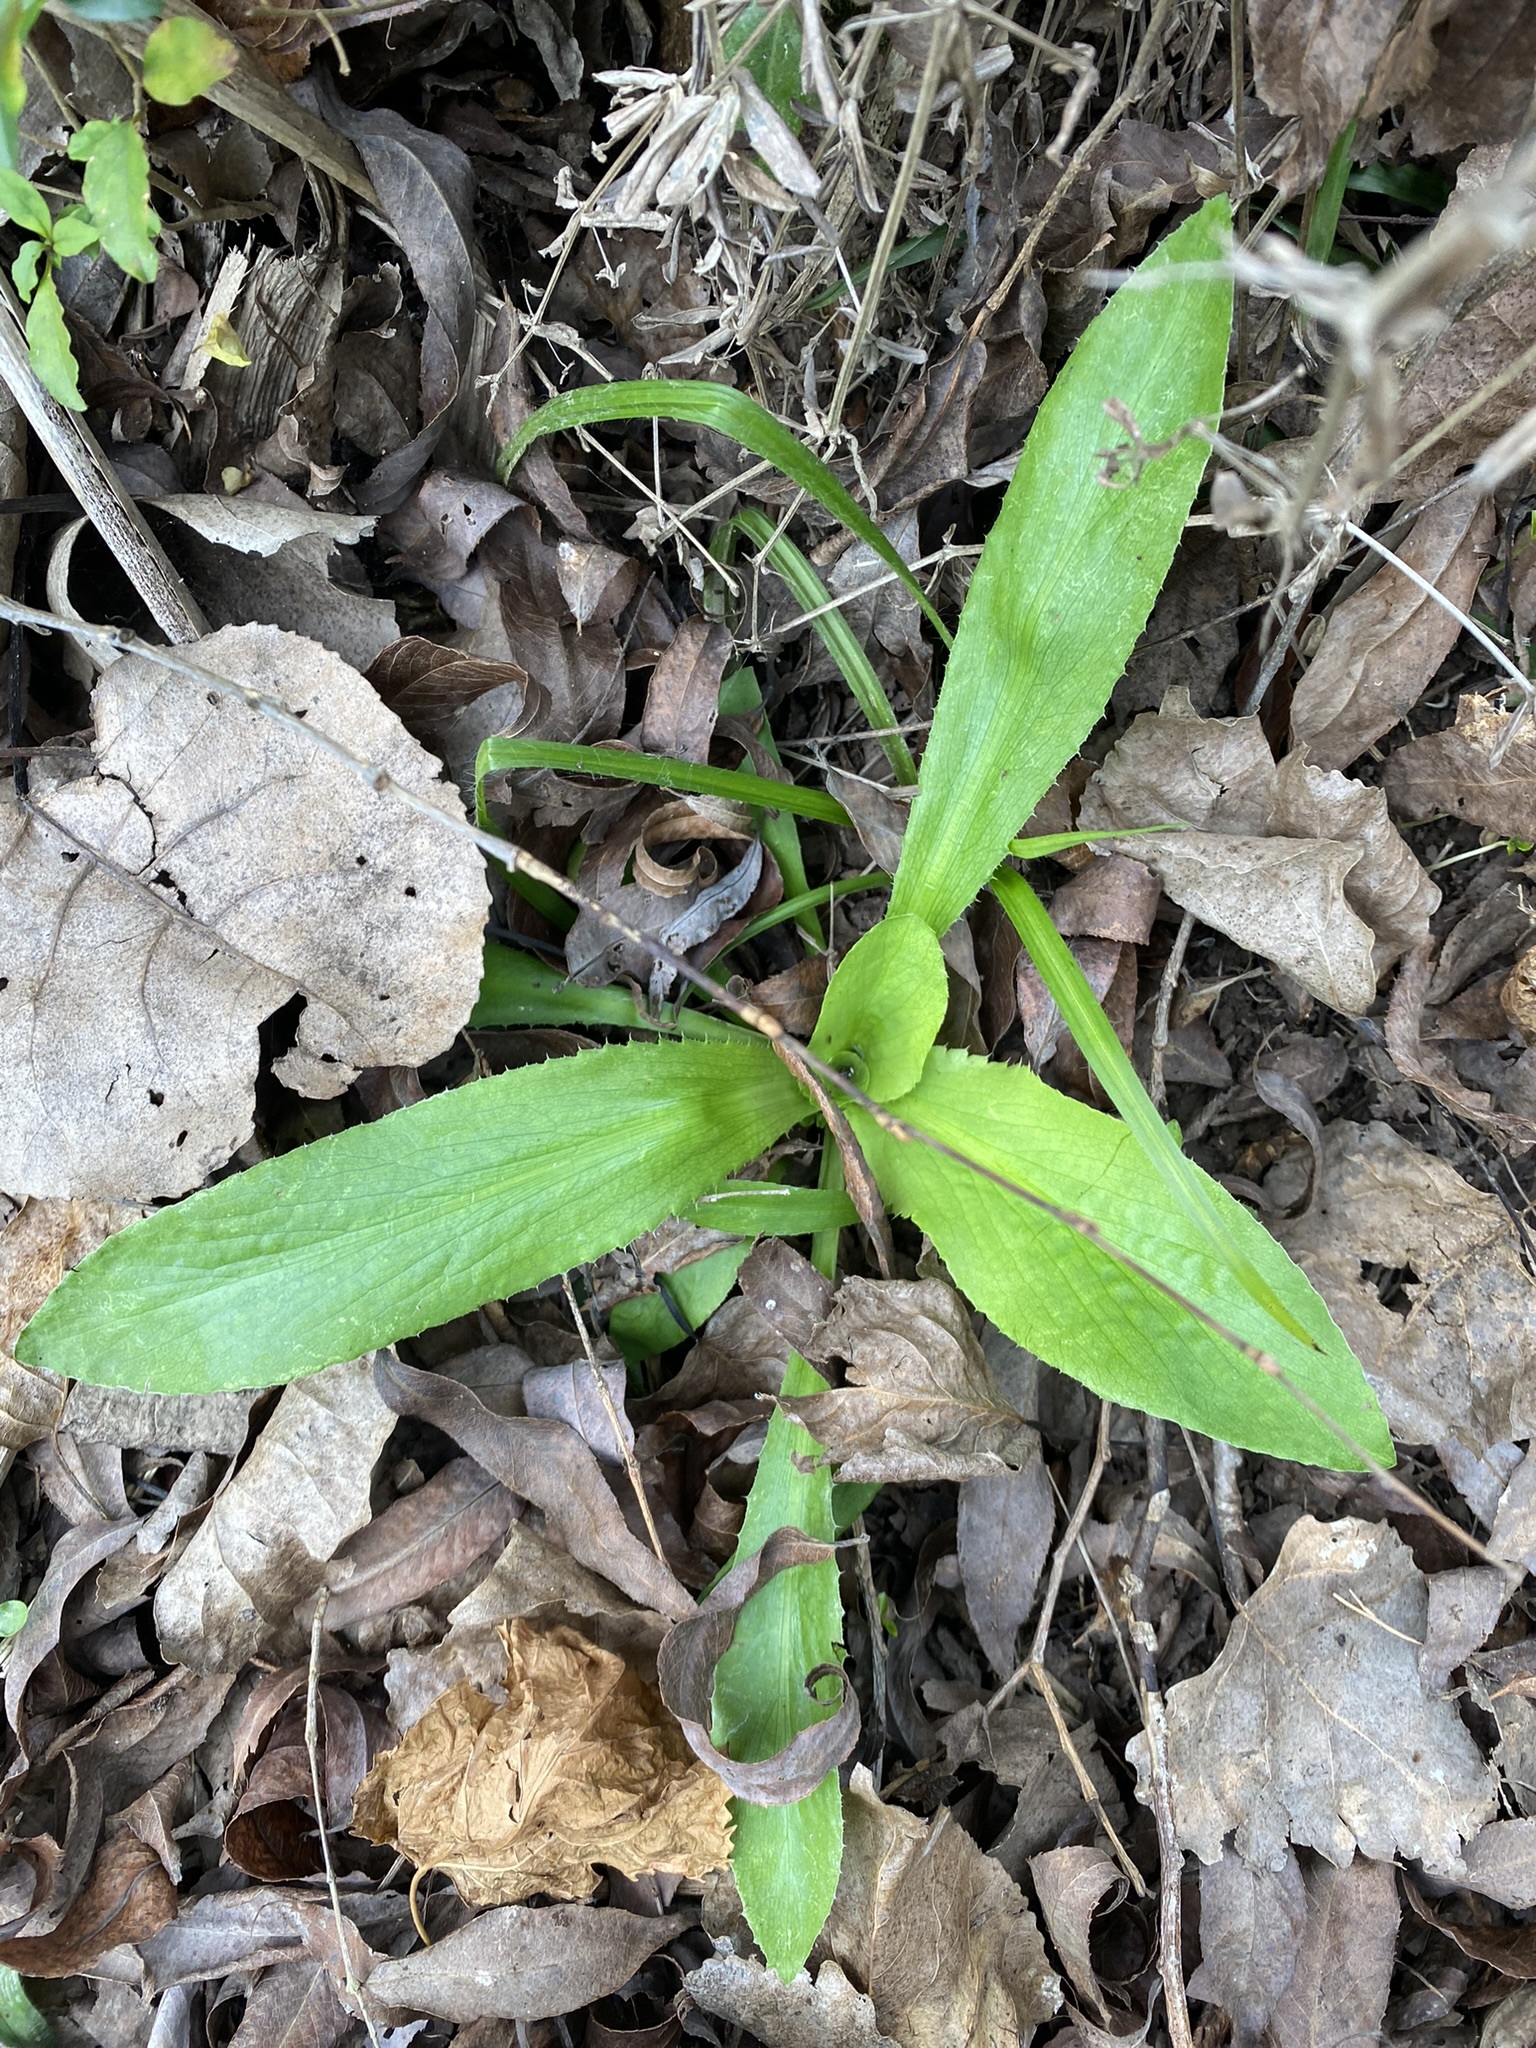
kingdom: Plantae
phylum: Tracheophyta
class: Liliopsida
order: Asparagales
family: Orchidaceae
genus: Chloraea
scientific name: Chloraea membranacea
